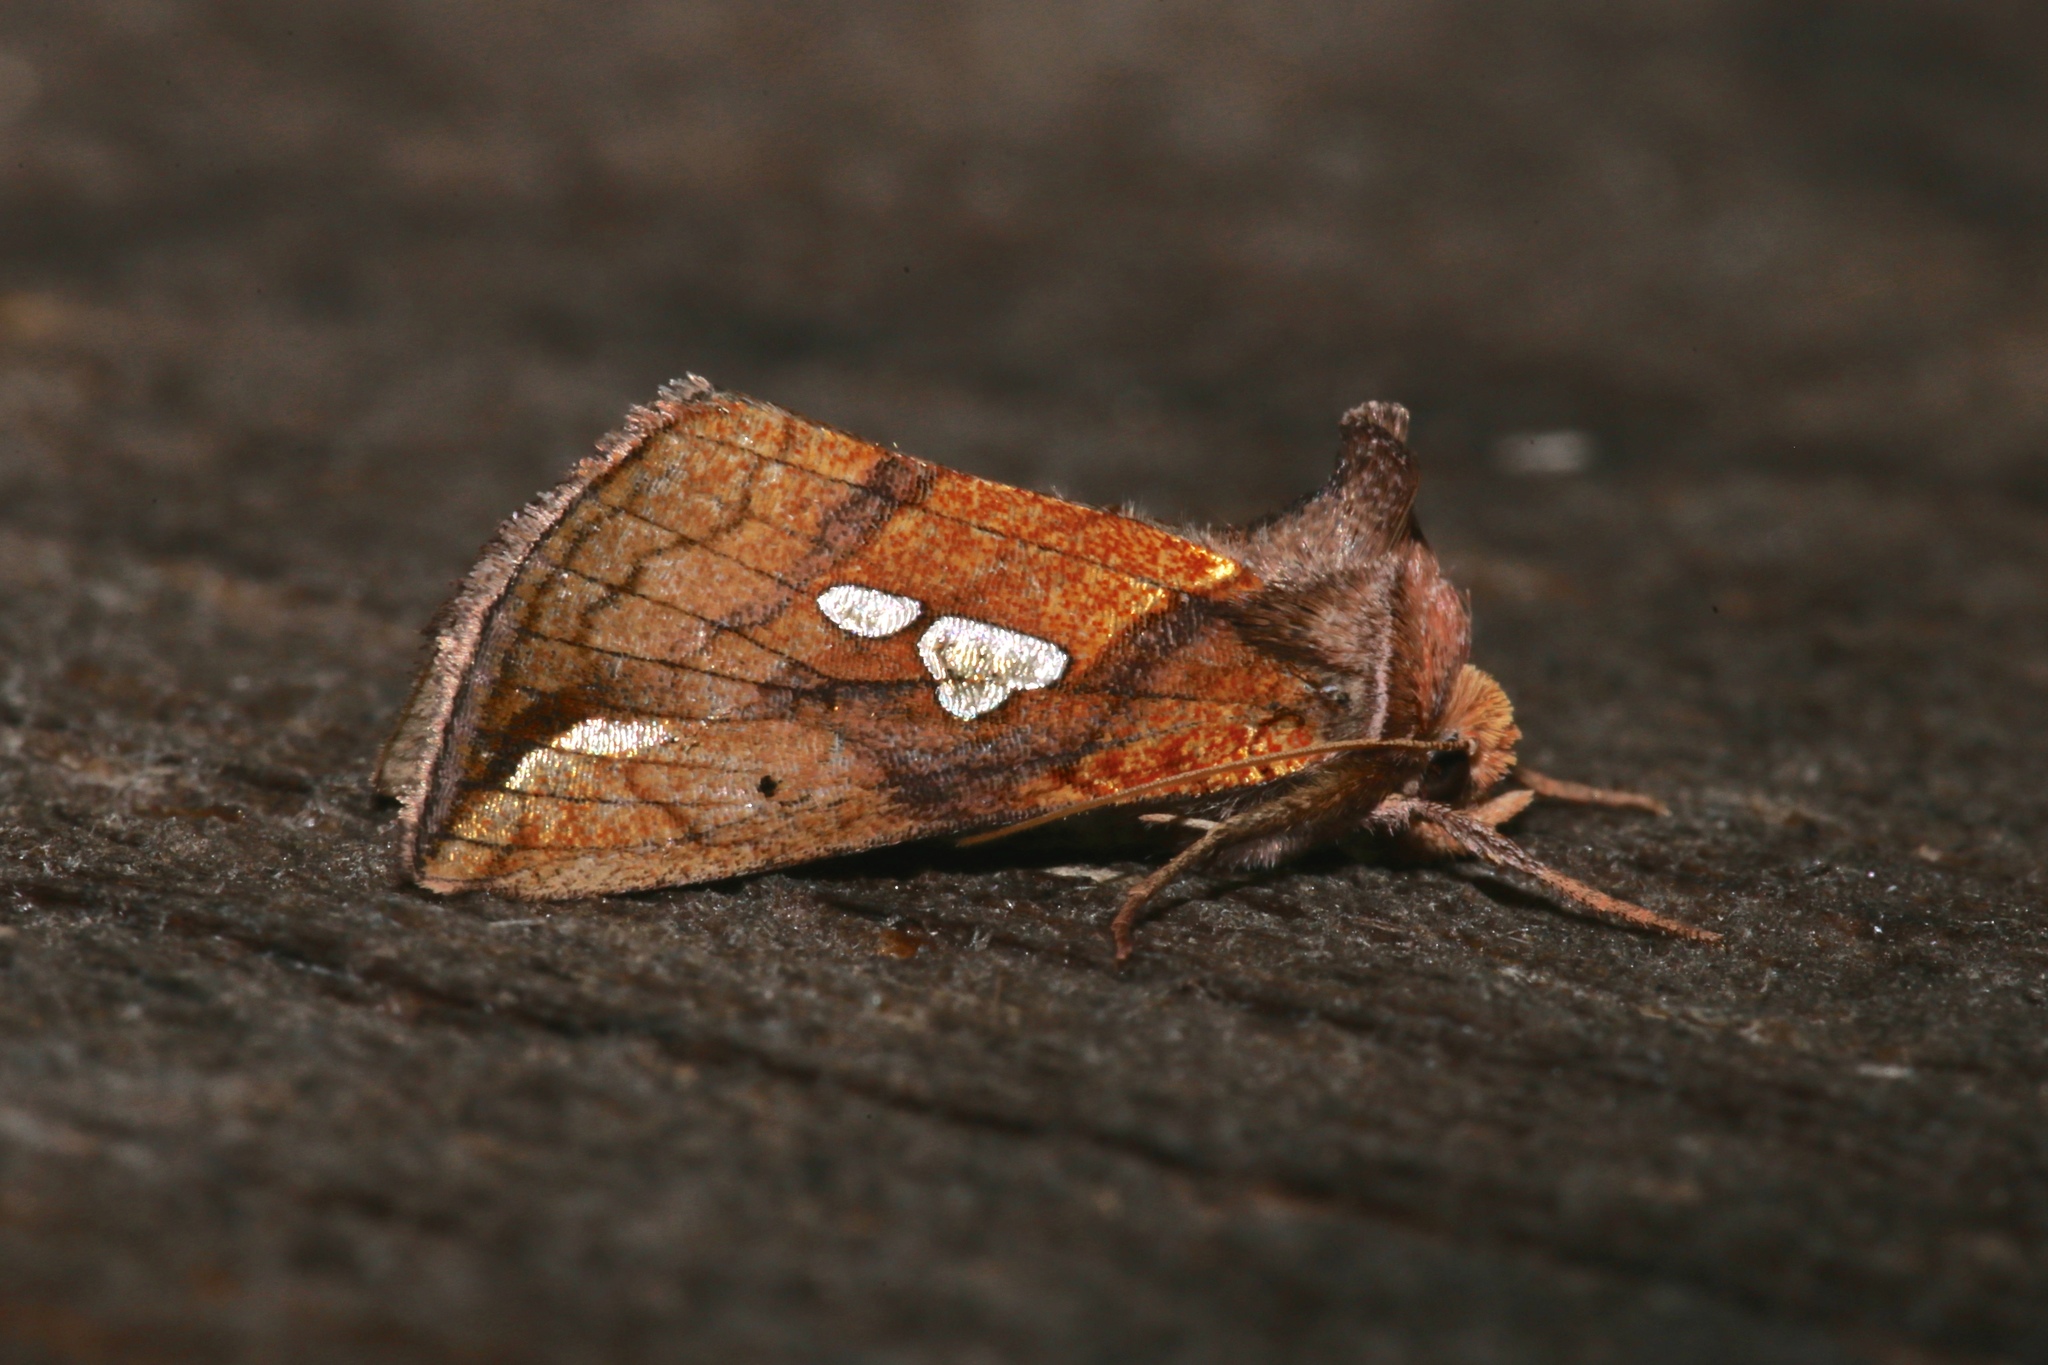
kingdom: Animalia
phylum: Arthropoda
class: Insecta
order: Lepidoptera
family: Noctuidae
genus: Plusia
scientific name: Plusia putnami
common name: Lempke's gold spot
